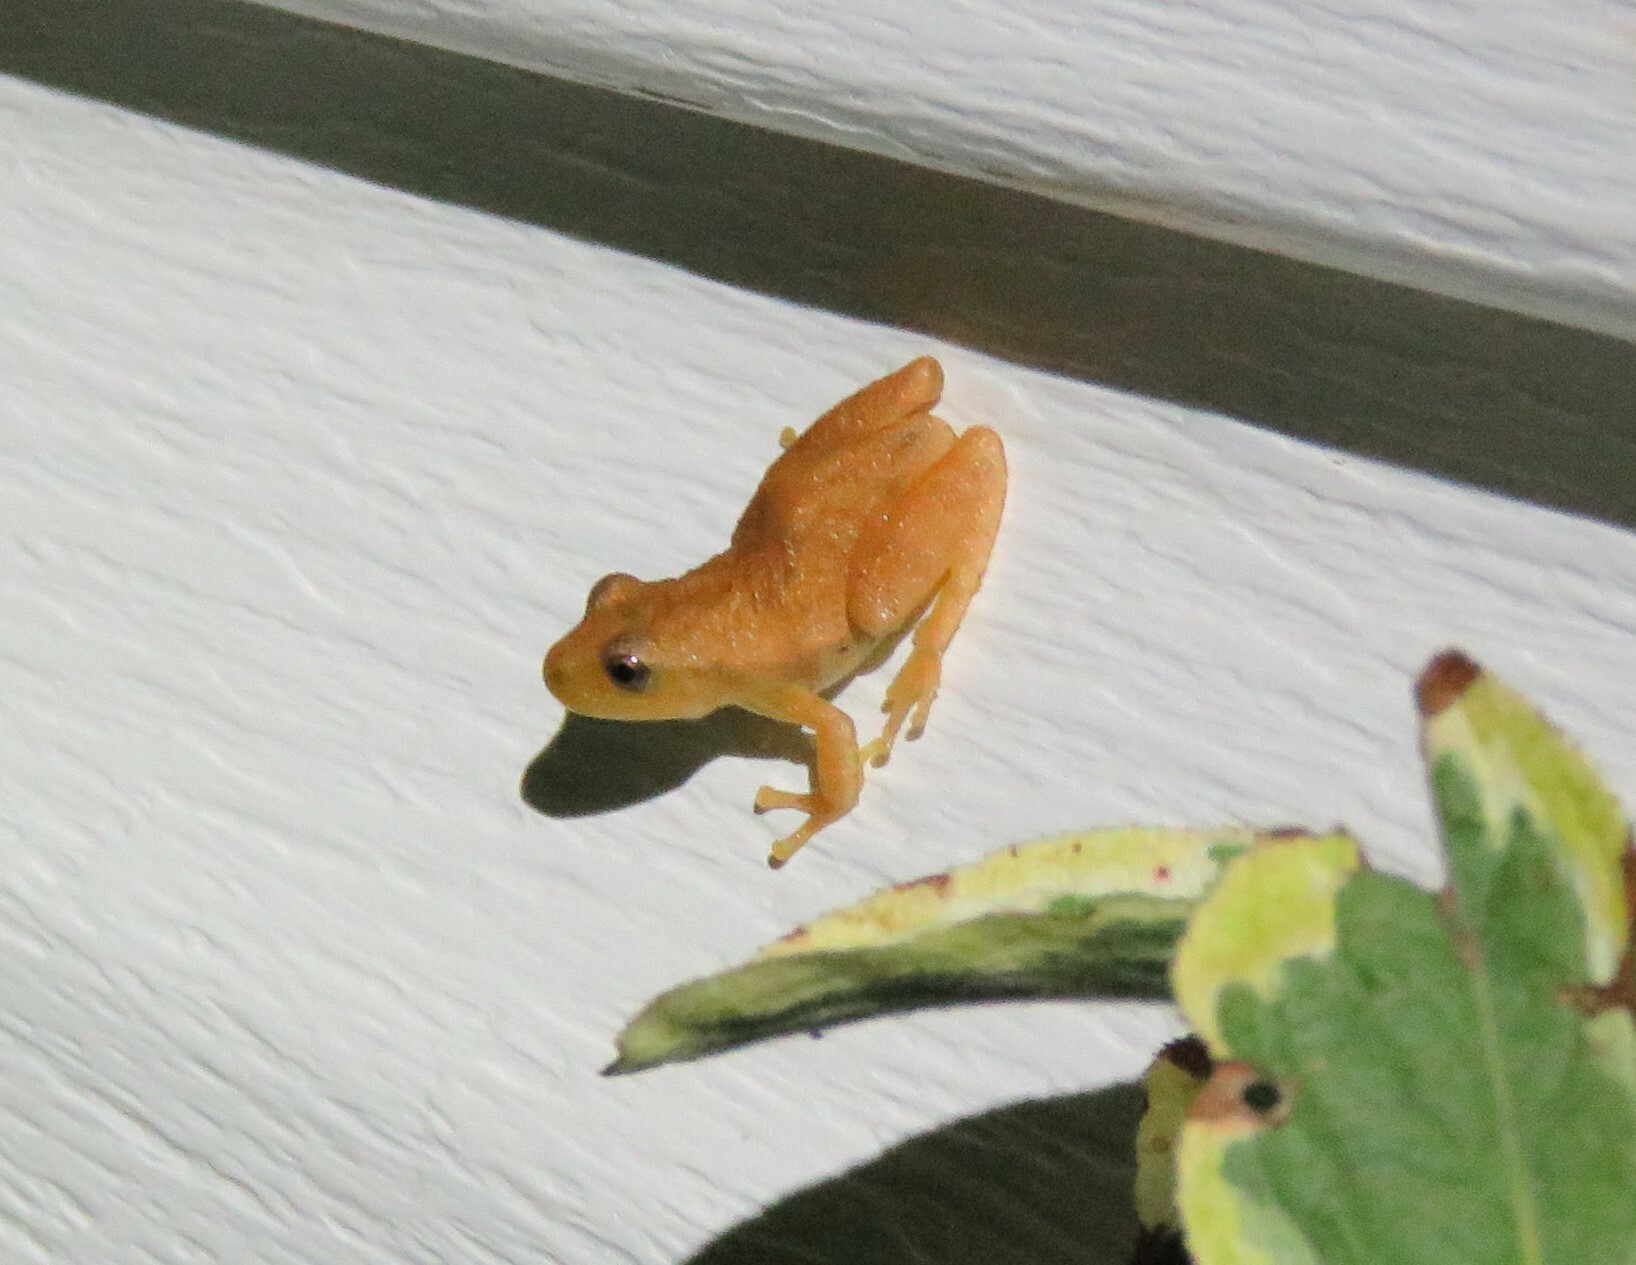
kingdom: Animalia
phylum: Chordata
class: Amphibia
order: Anura
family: Hylidae
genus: Pseudacris
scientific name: Pseudacris crucifer
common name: Spring peeper
